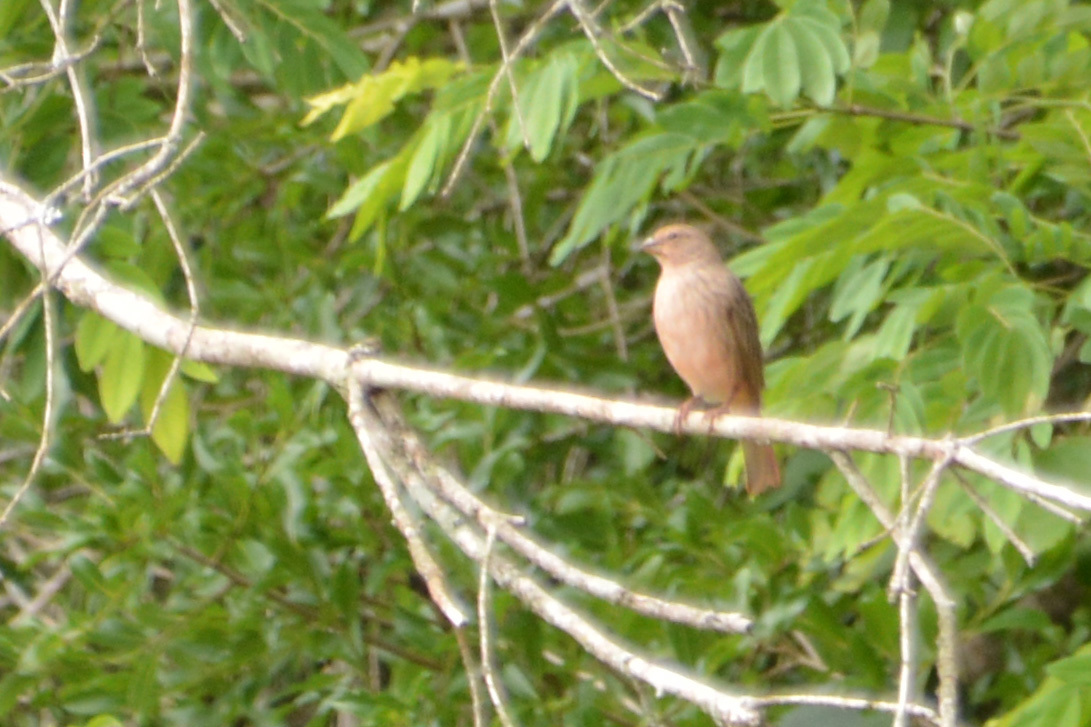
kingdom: Animalia
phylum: Chordata
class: Aves
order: Passeriformes
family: Thraupidae
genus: Sicalis
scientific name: Sicalis flaveola
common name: Saffron finch
